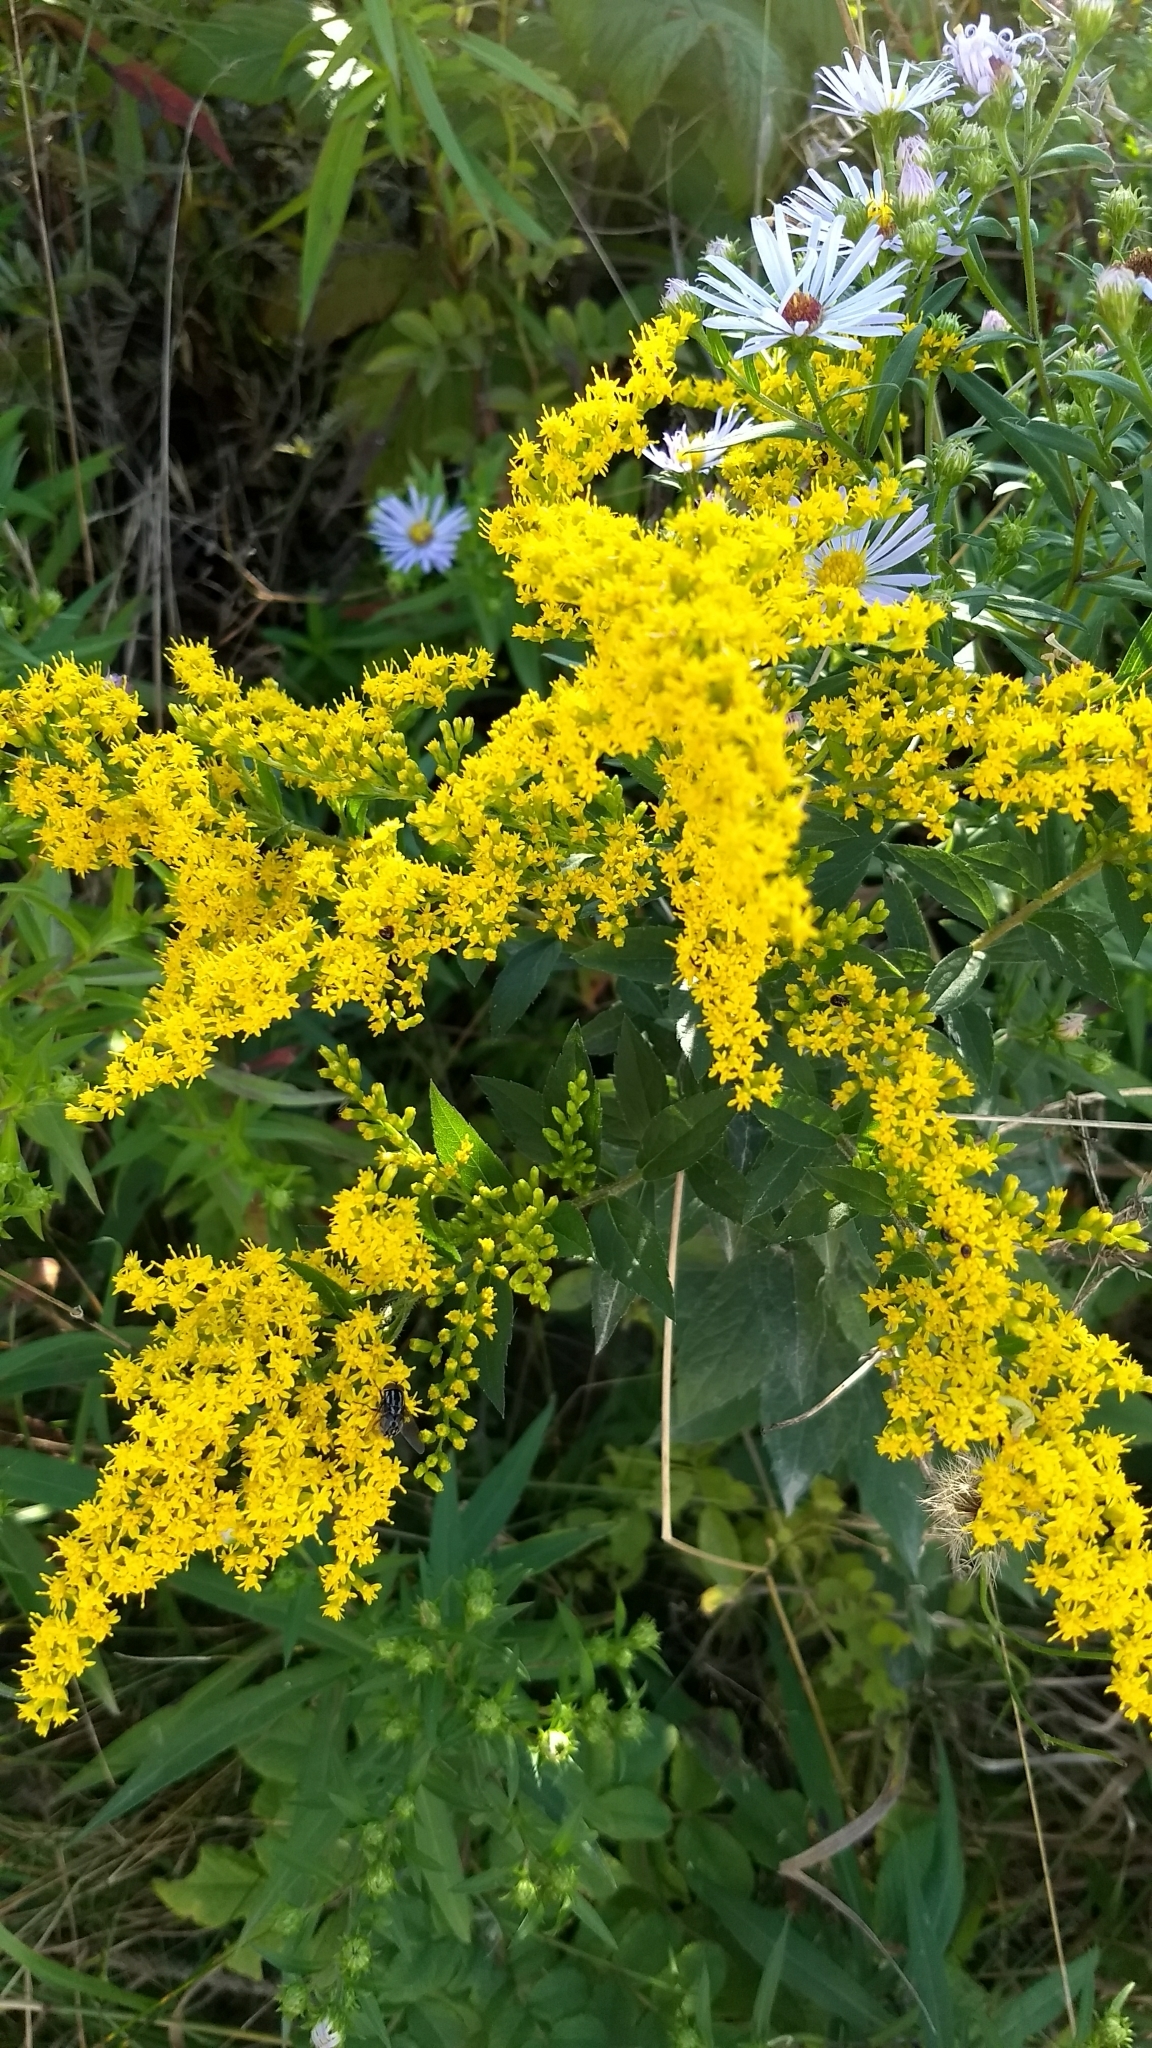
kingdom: Plantae
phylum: Tracheophyta
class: Magnoliopsida
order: Asterales
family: Asteraceae
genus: Solidago
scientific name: Solidago rugosa
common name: Rough-stemmed goldenrod
